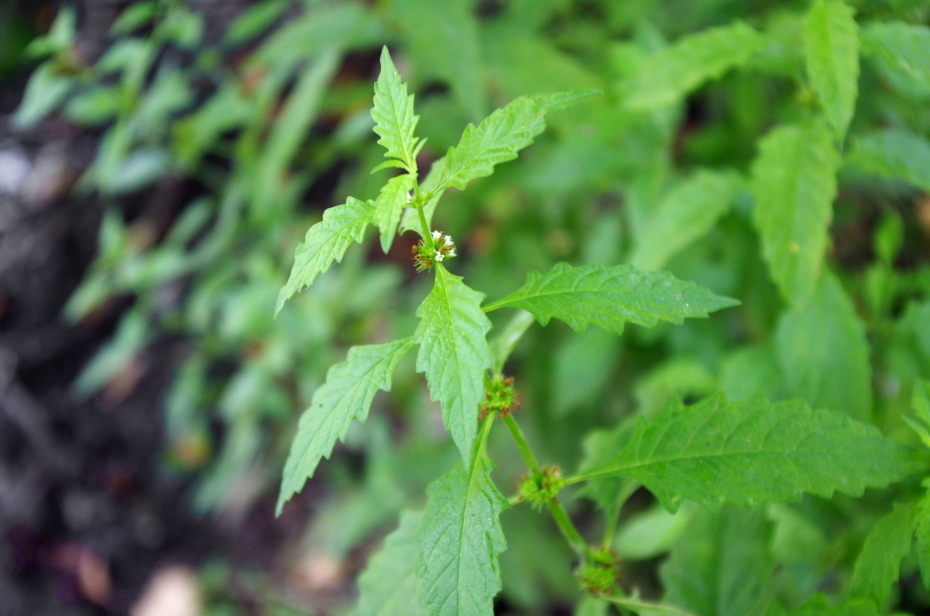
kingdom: Plantae
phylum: Tracheophyta
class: Magnoliopsida
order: Lamiales
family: Lamiaceae
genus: Lycopus
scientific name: Lycopus europaeus
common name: European bugleweed
